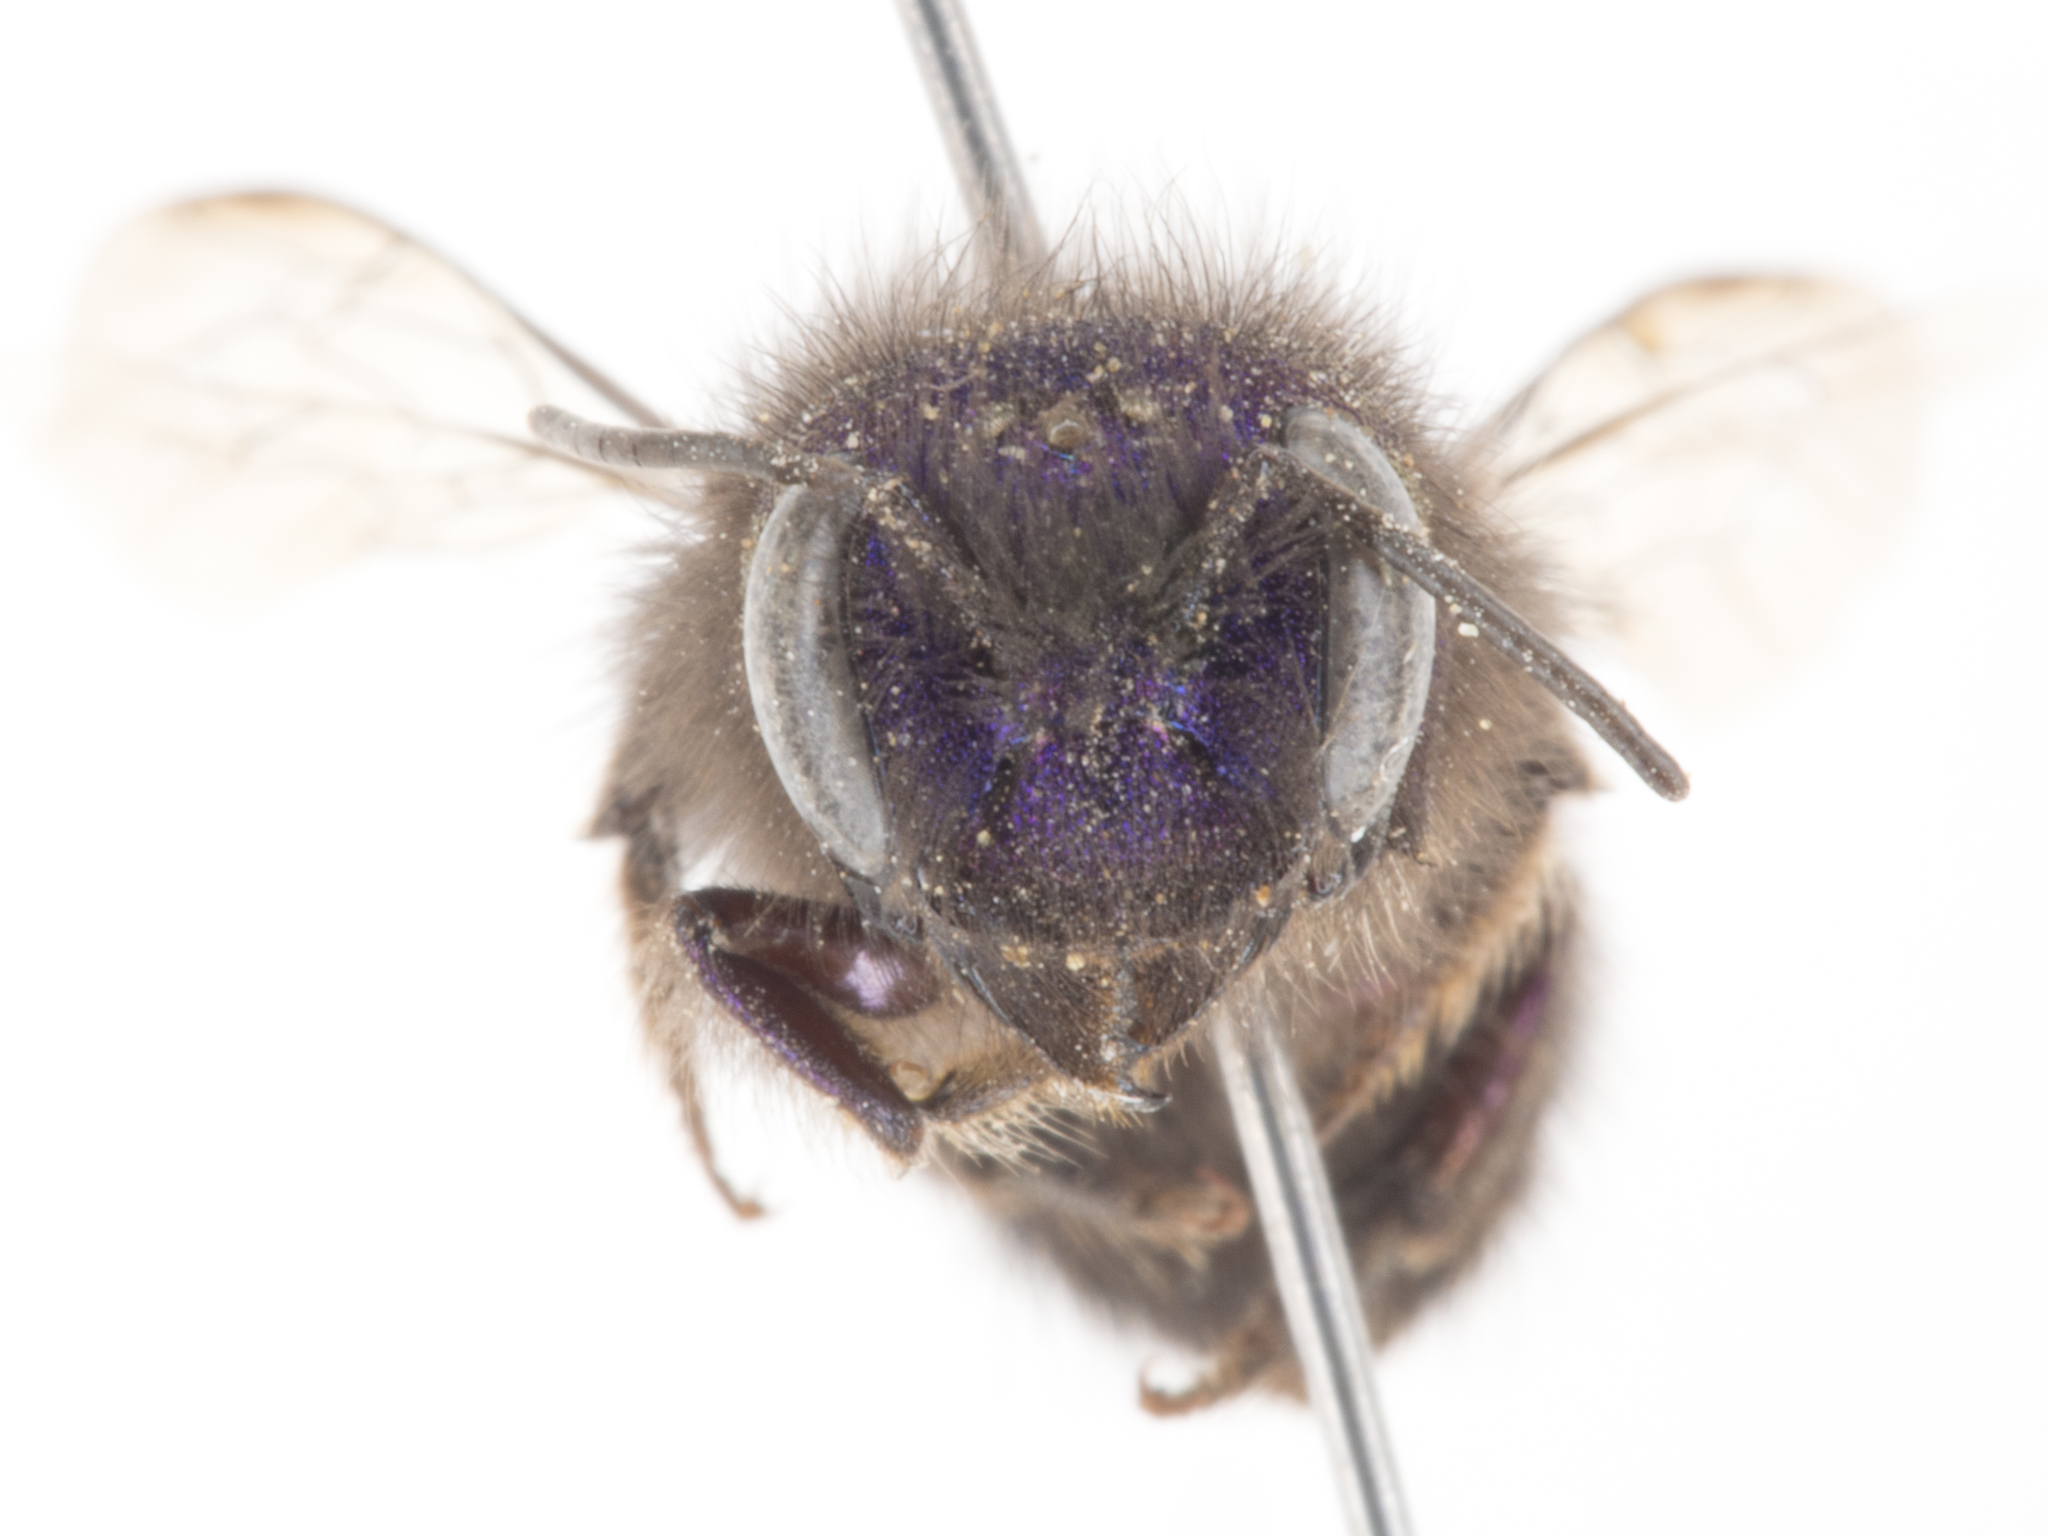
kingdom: Animalia
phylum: Arthropoda
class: Insecta
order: Hymenoptera
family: Megachilidae
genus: Osmia
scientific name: Osmia ribifloris
